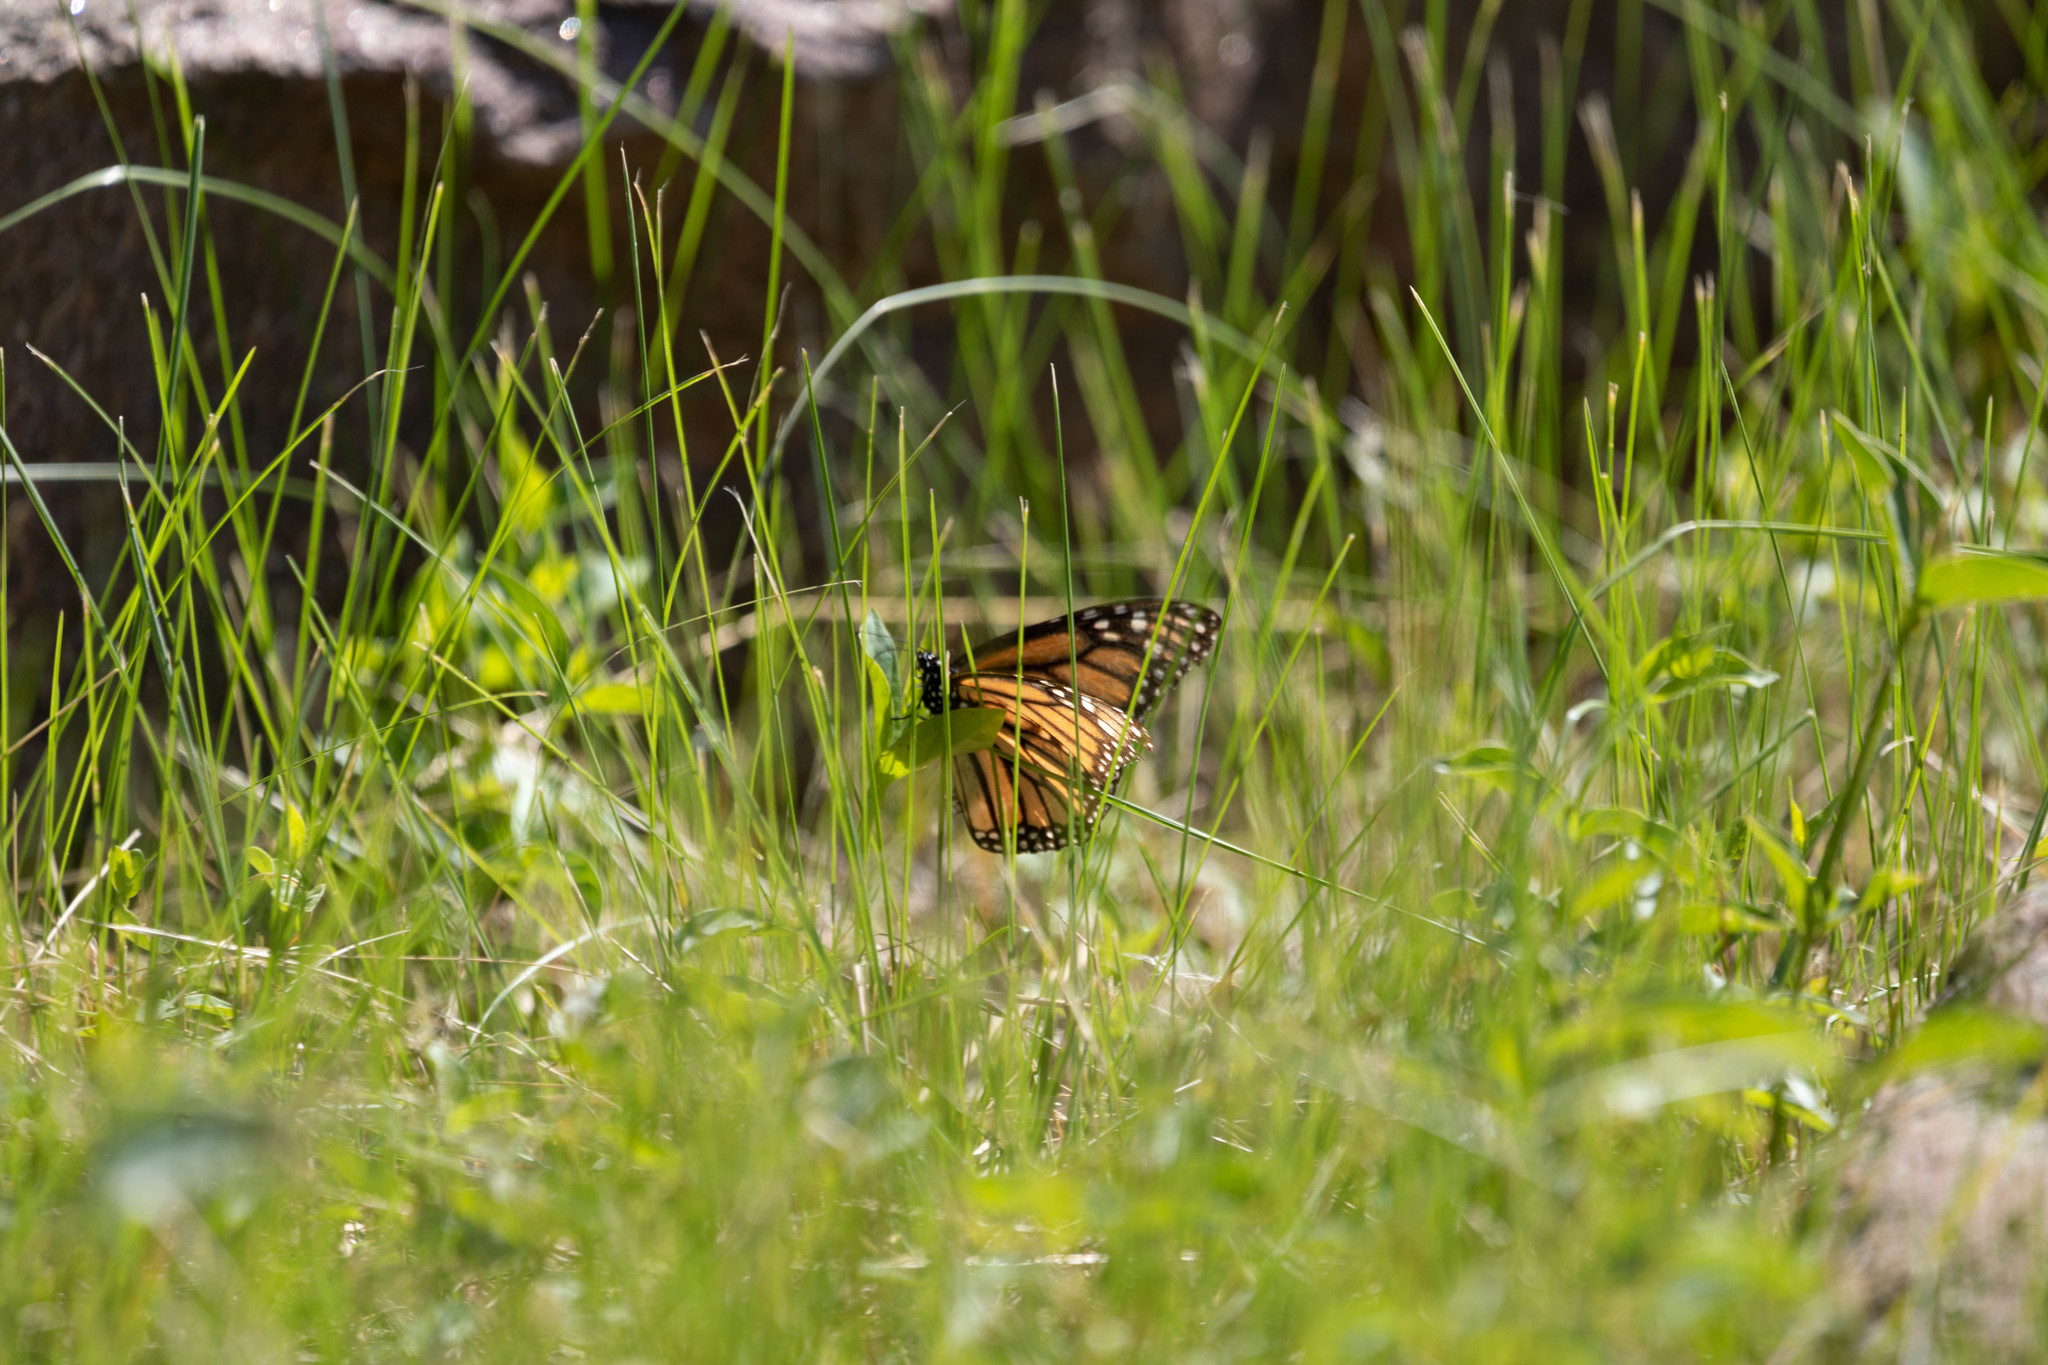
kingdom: Animalia
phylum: Arthropoda
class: Insecta
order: Lepidoptera
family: Nymphalidae
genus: Danaus
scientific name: Danaus plexippus
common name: Monarch
